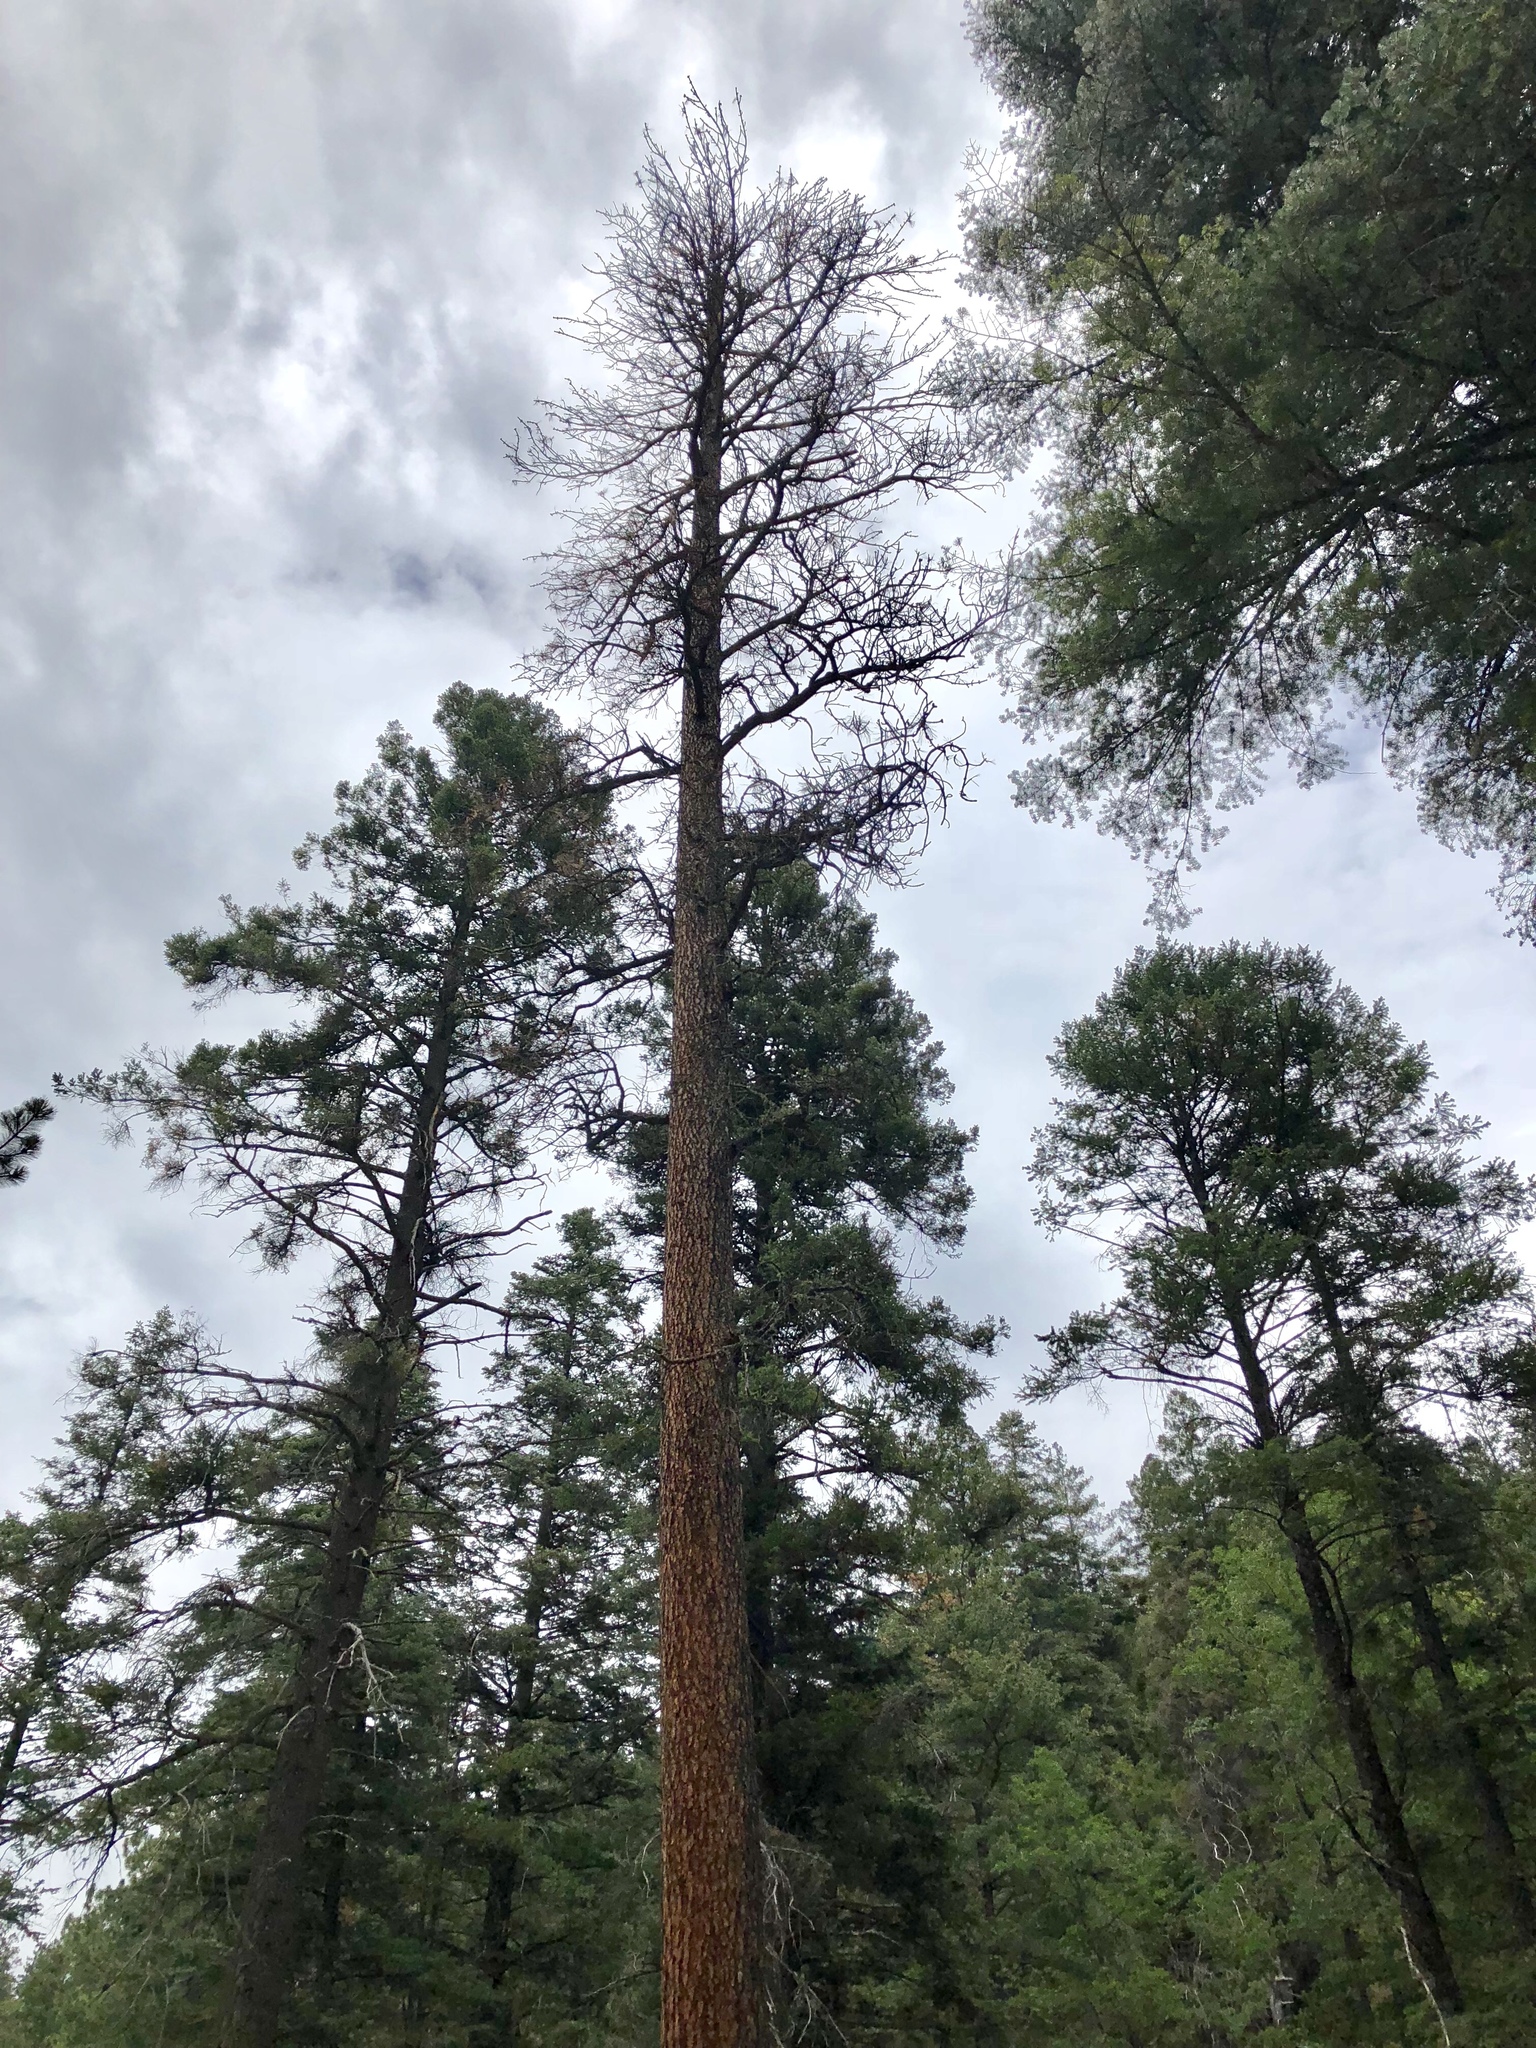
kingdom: Plantae
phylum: Tracheophyta
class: Pinopsida
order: Pinales
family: Pinaceae
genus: Pinus
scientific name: Pinus ponderosa
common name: Western yellow-pine
